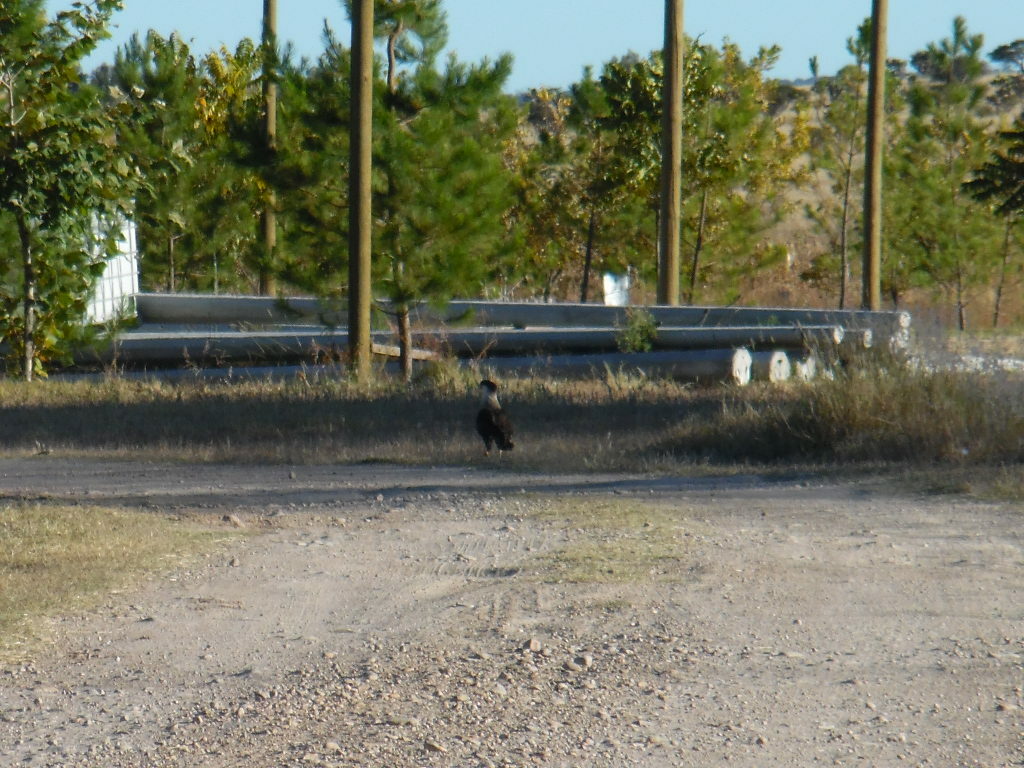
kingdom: Animalia
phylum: Chordata
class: Aves
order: Falconiformes
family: Falconidae
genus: Caracara
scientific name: Caracara plancus
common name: Southern caracara
